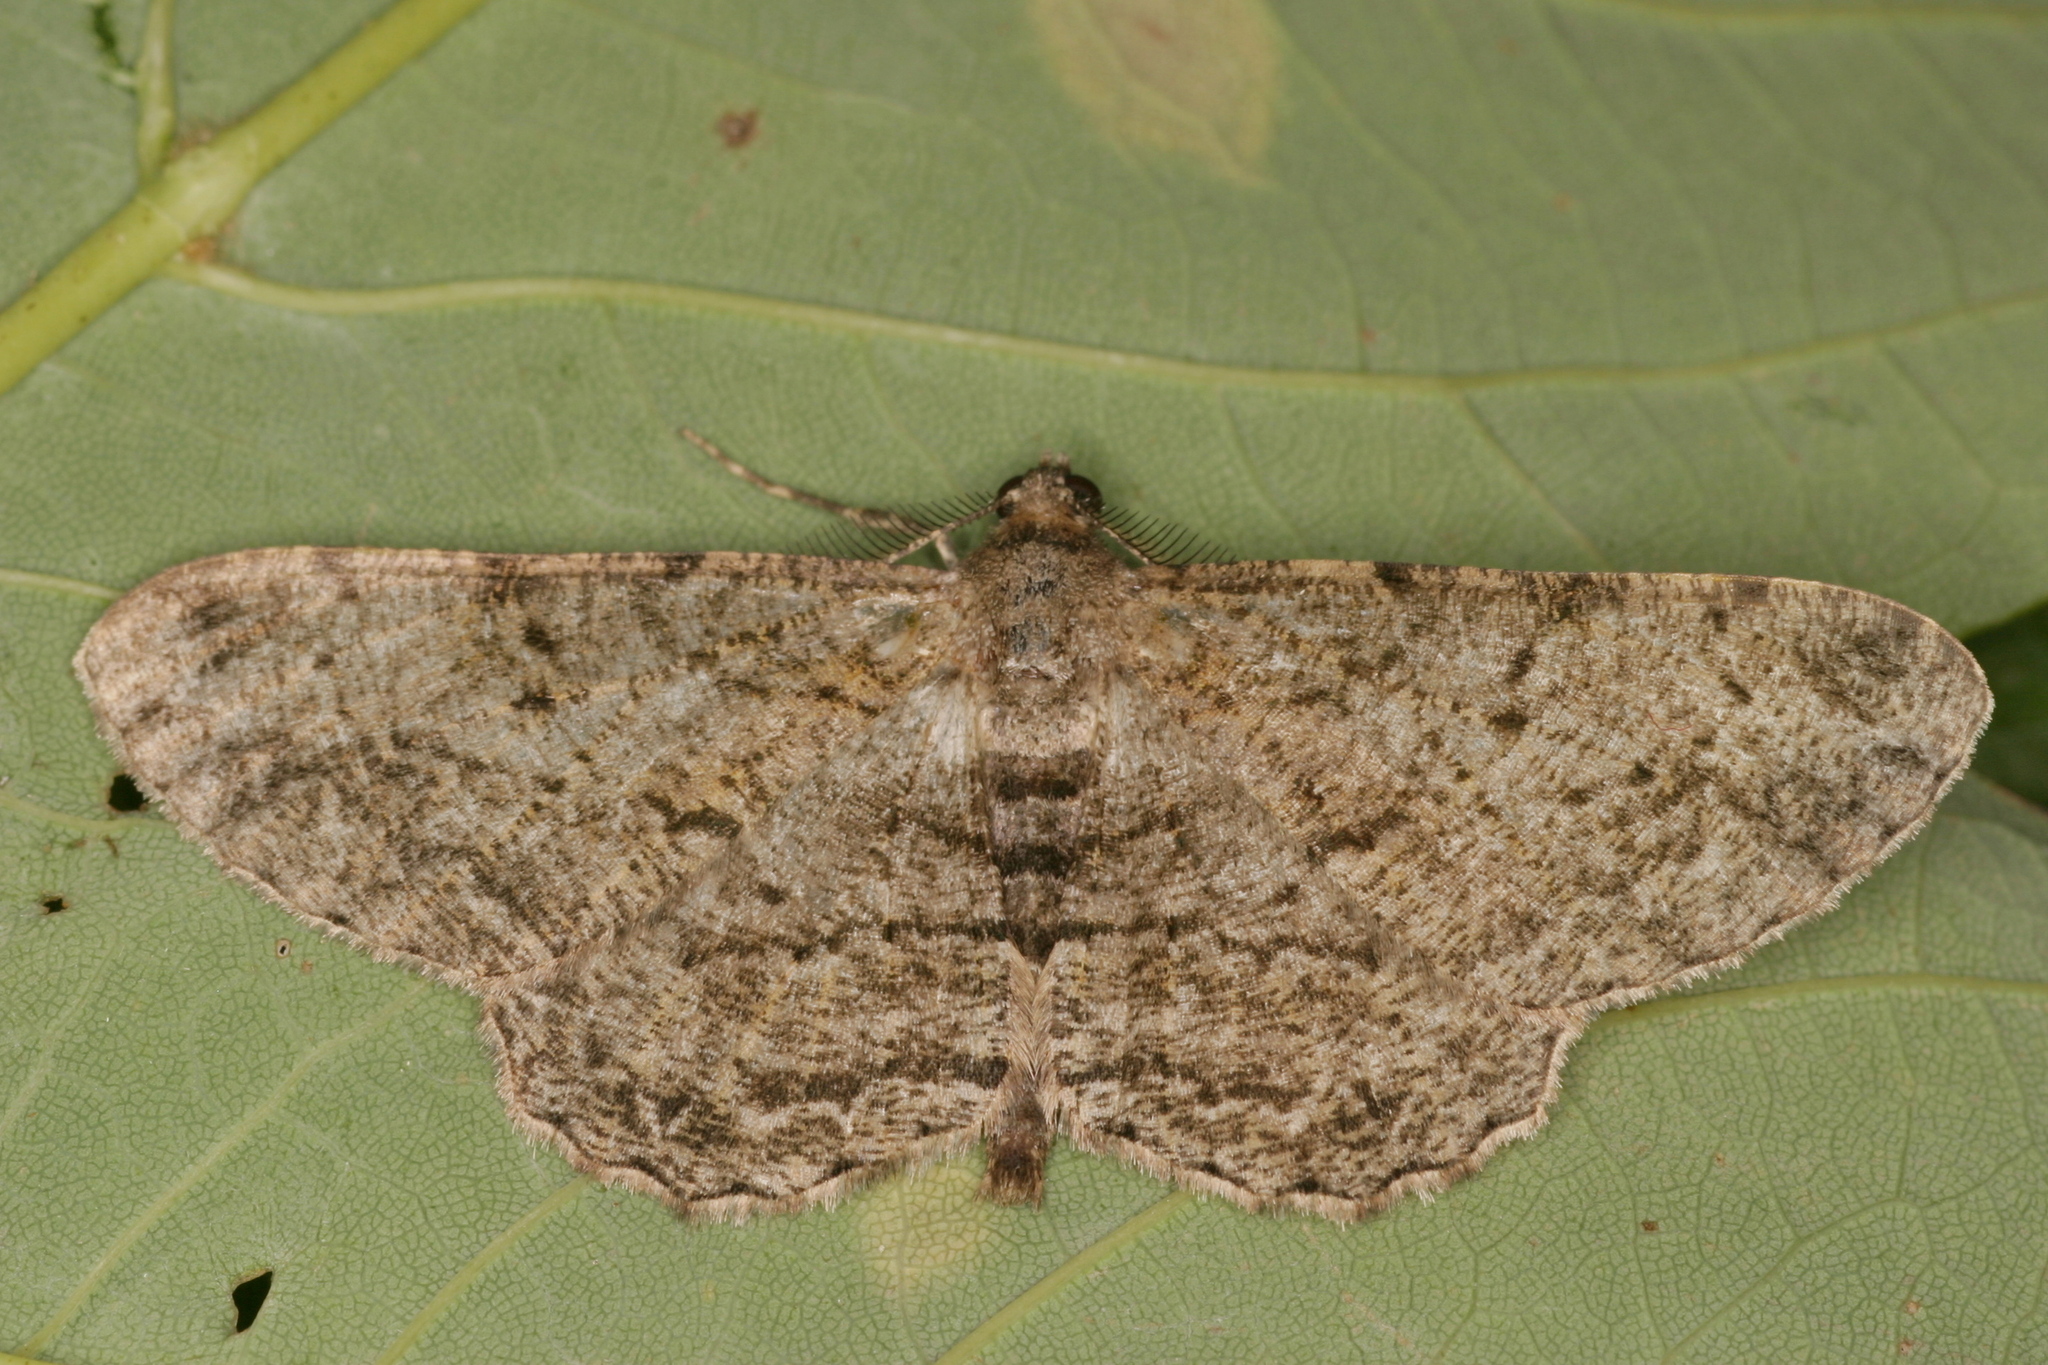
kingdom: Animalia
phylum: Arthropoda
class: Insecta
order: Lepidoptera
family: Geometridae
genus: Peribatodes
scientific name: Peribatodes rhomboidaria
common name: Willow beauty
